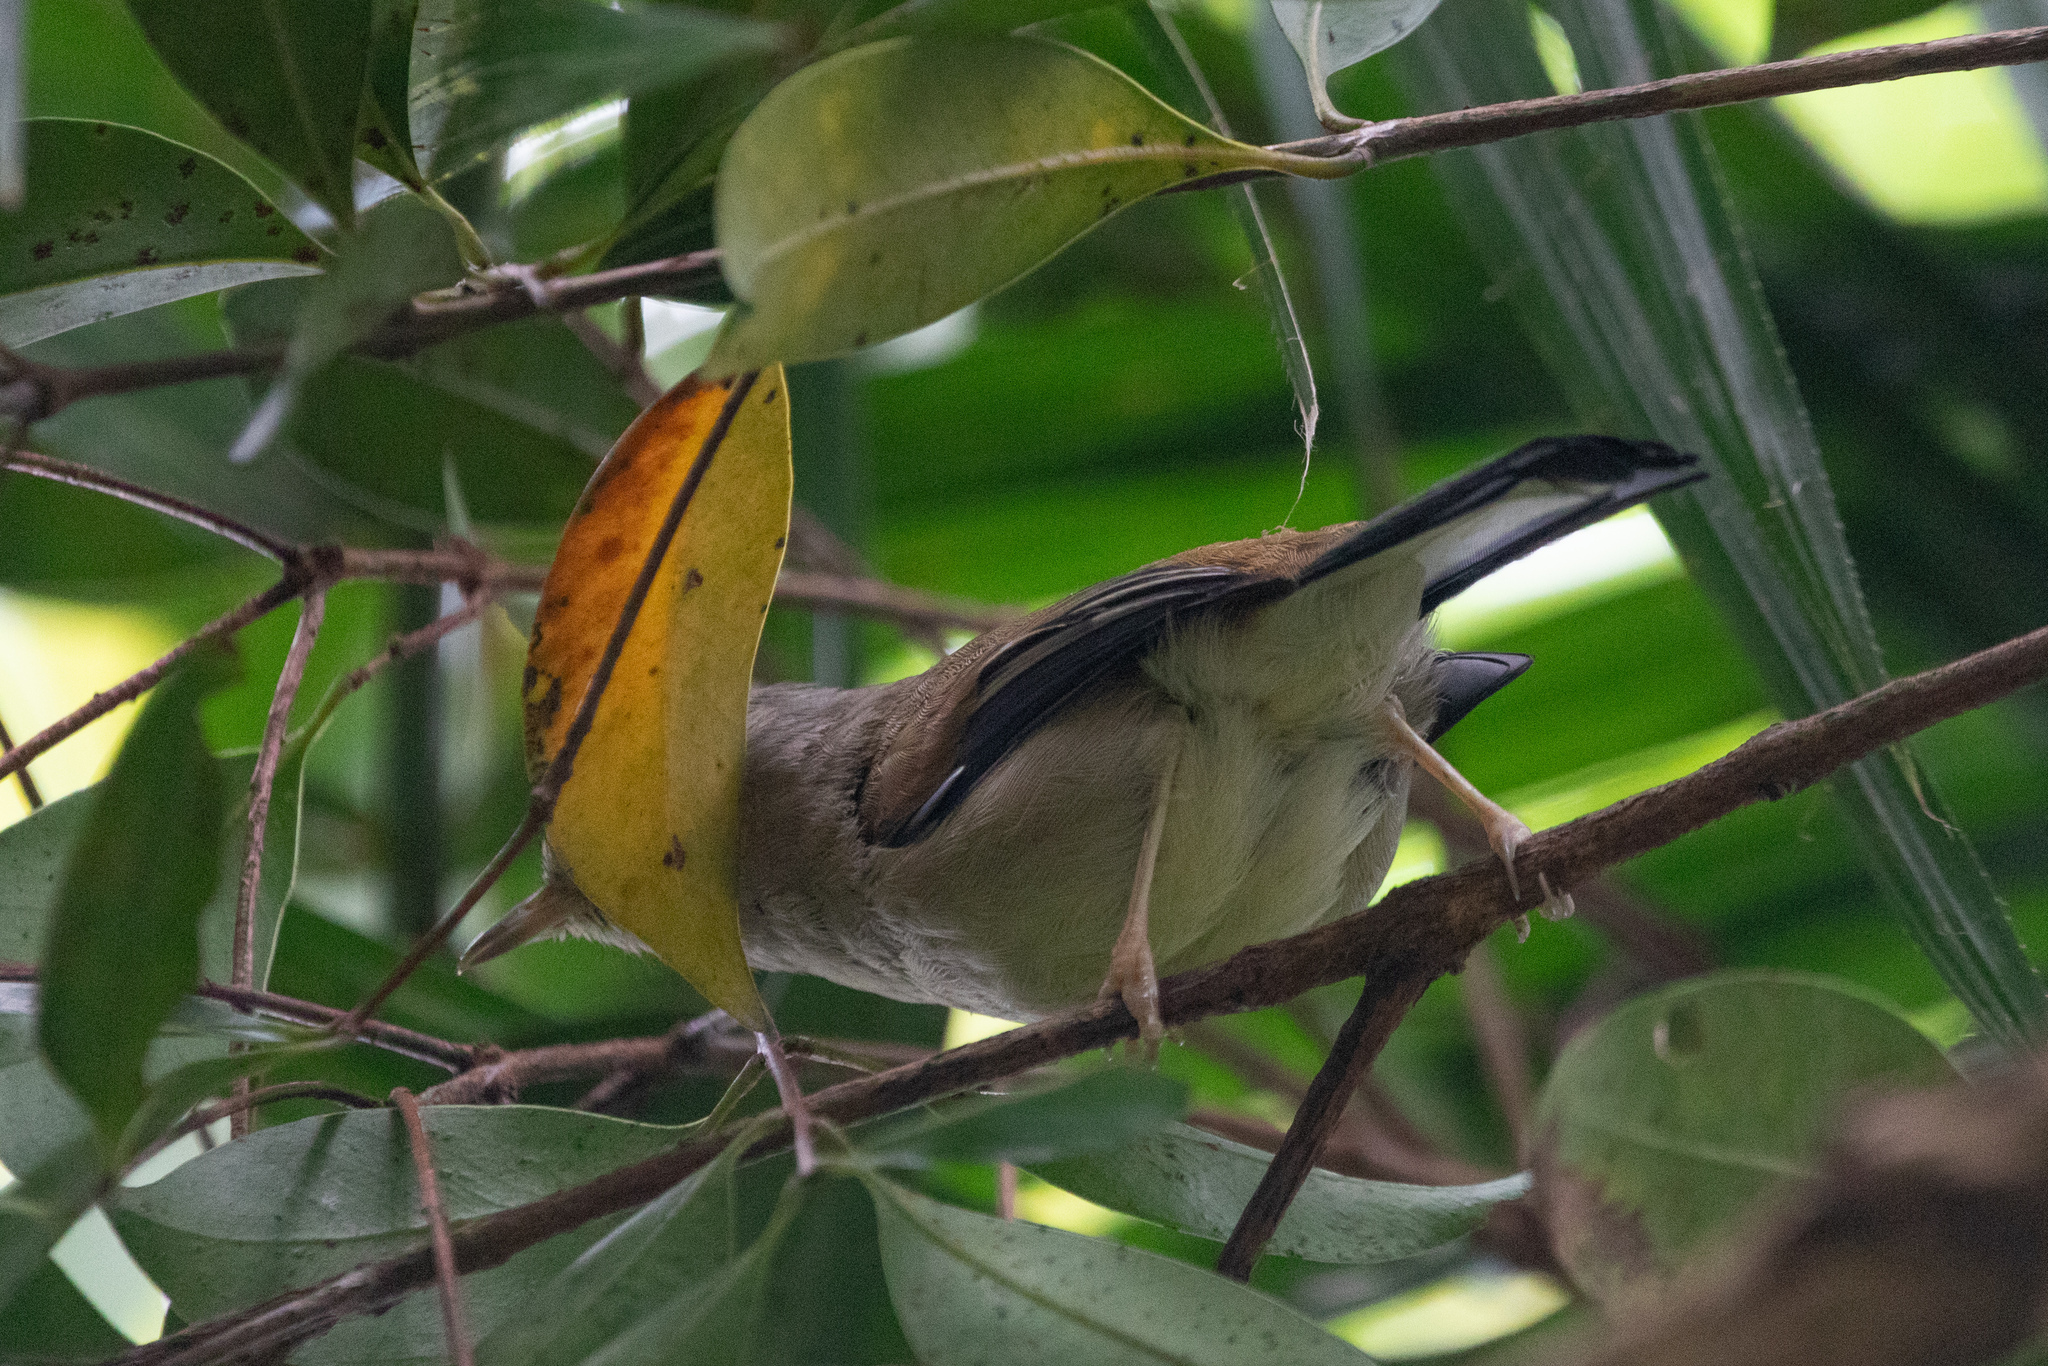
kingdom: Animalia
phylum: Chordata
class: Aves
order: Passeriformes
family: Leiothrichidae
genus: Minla
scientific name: Minla cyanouroptera
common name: Blue-winged minla
